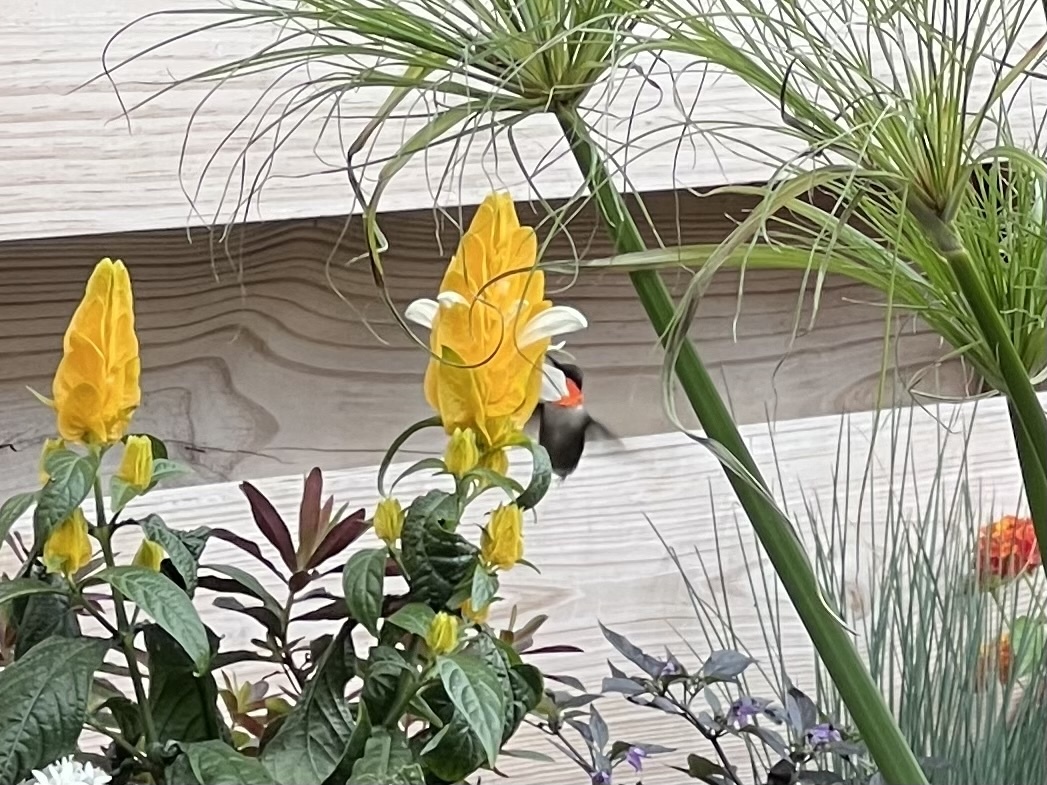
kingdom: Animalia
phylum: Chordata
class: Aves
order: Apodiformes
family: Trochilidae
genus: Archilochus
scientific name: Archilochus colubris
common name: Ruby-throated hummingbird
